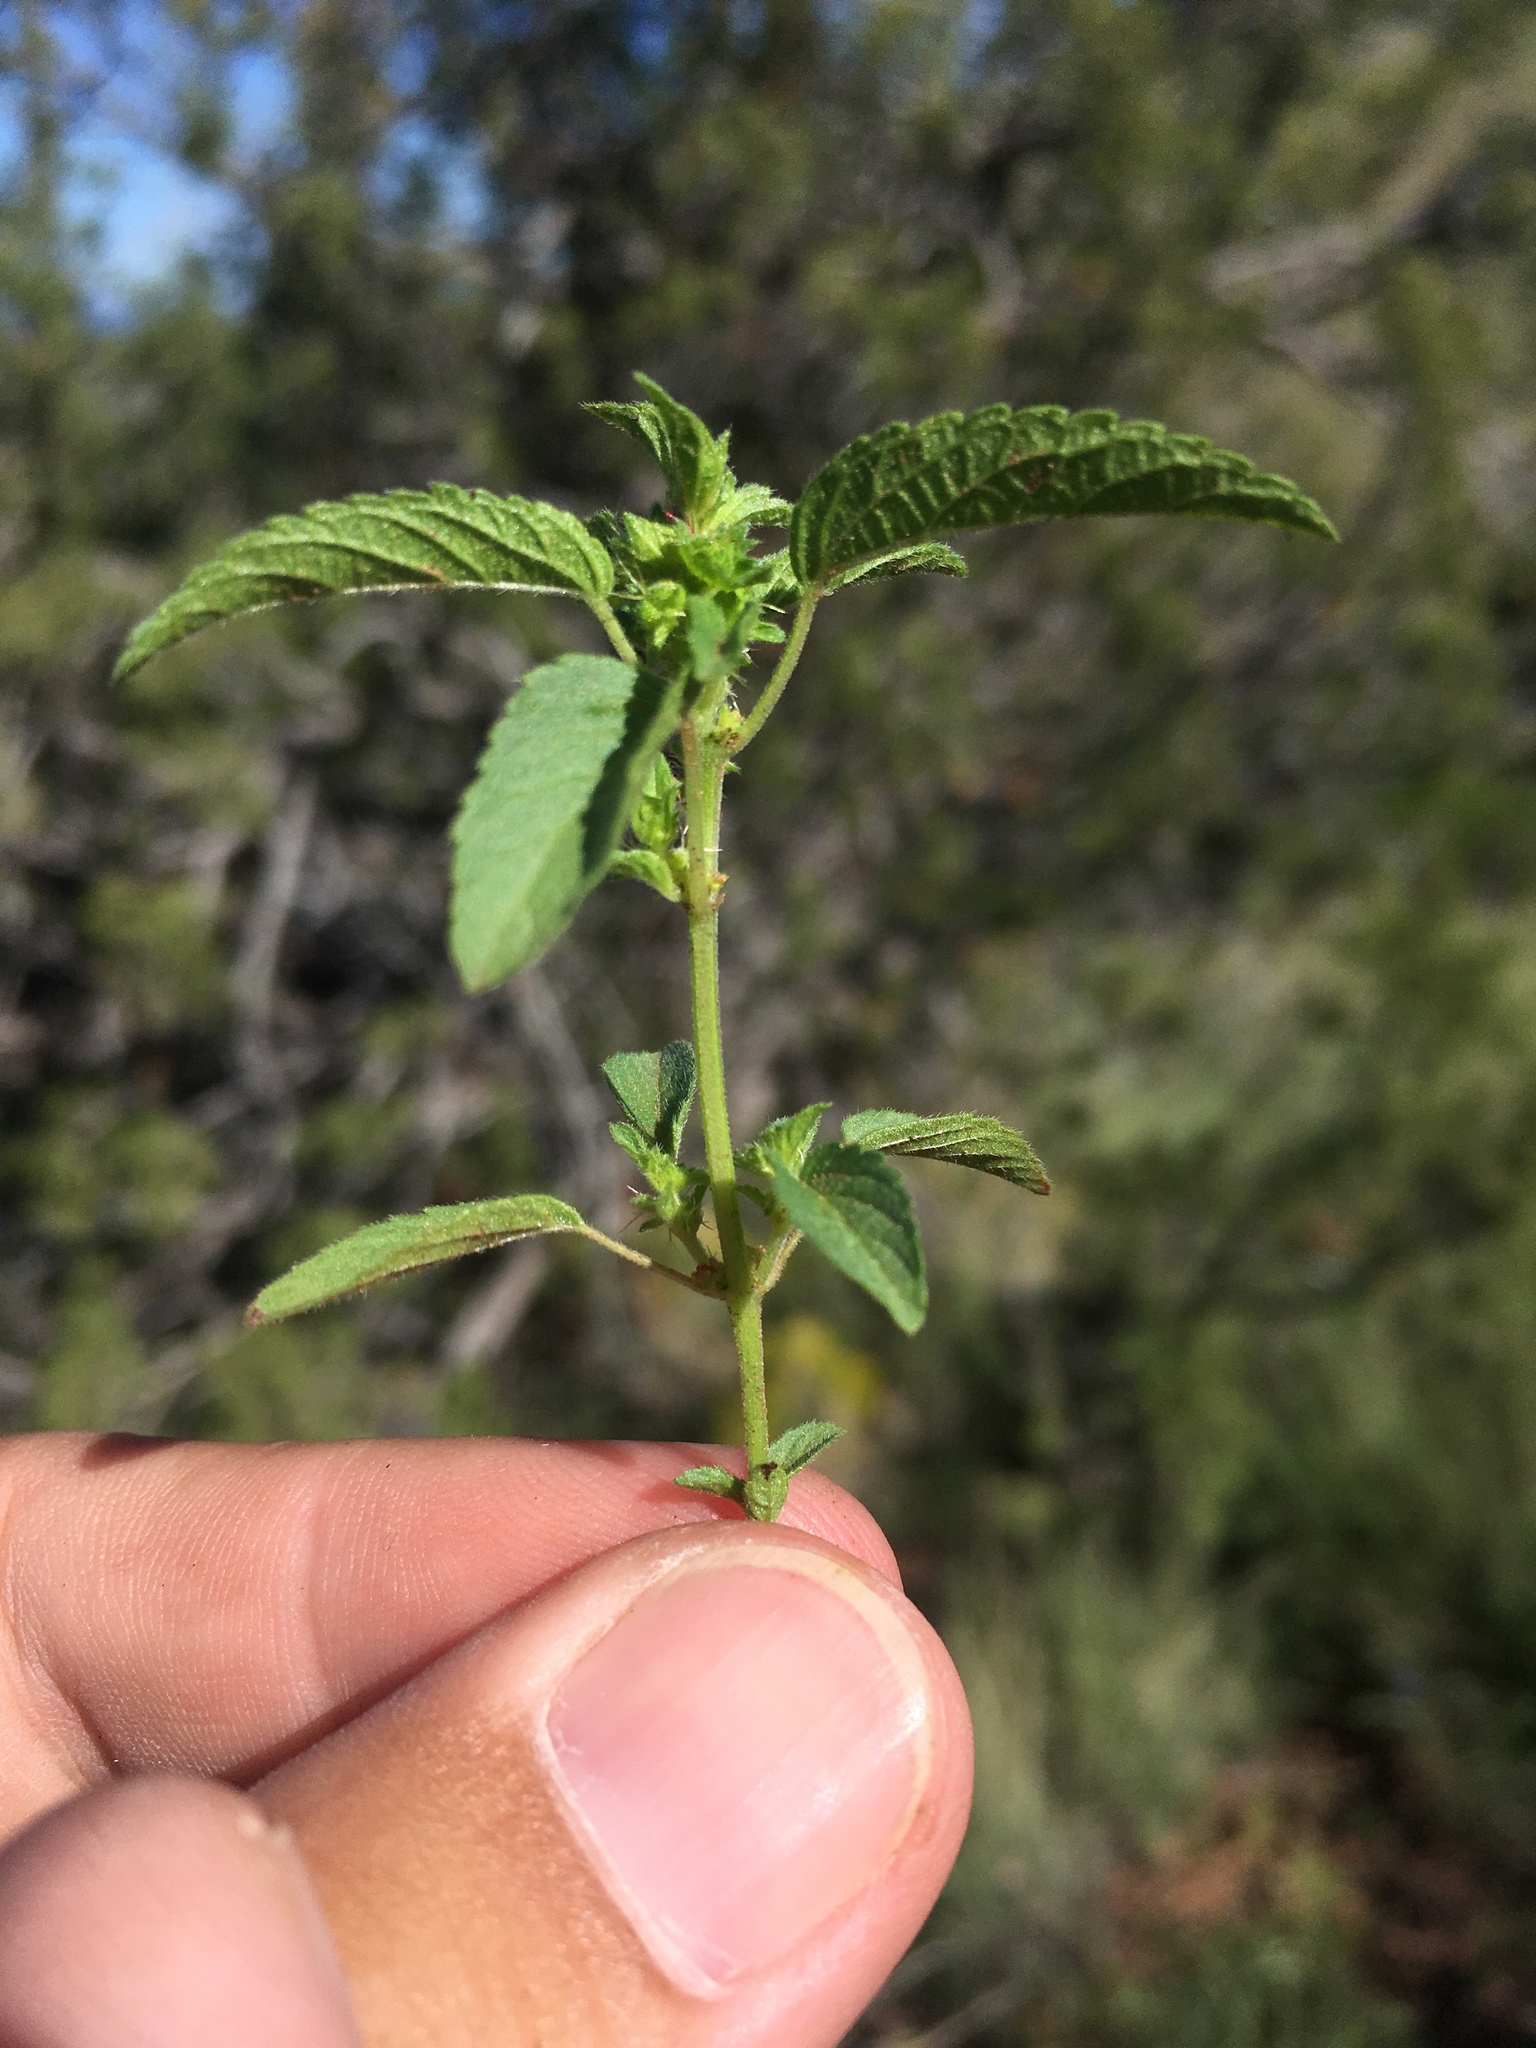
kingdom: Plantae
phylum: Tracheophyta
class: Magnoliopsida
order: Malpighiales
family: Euphorbiaceae
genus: Acalypha
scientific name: Acalypha neomexicana
